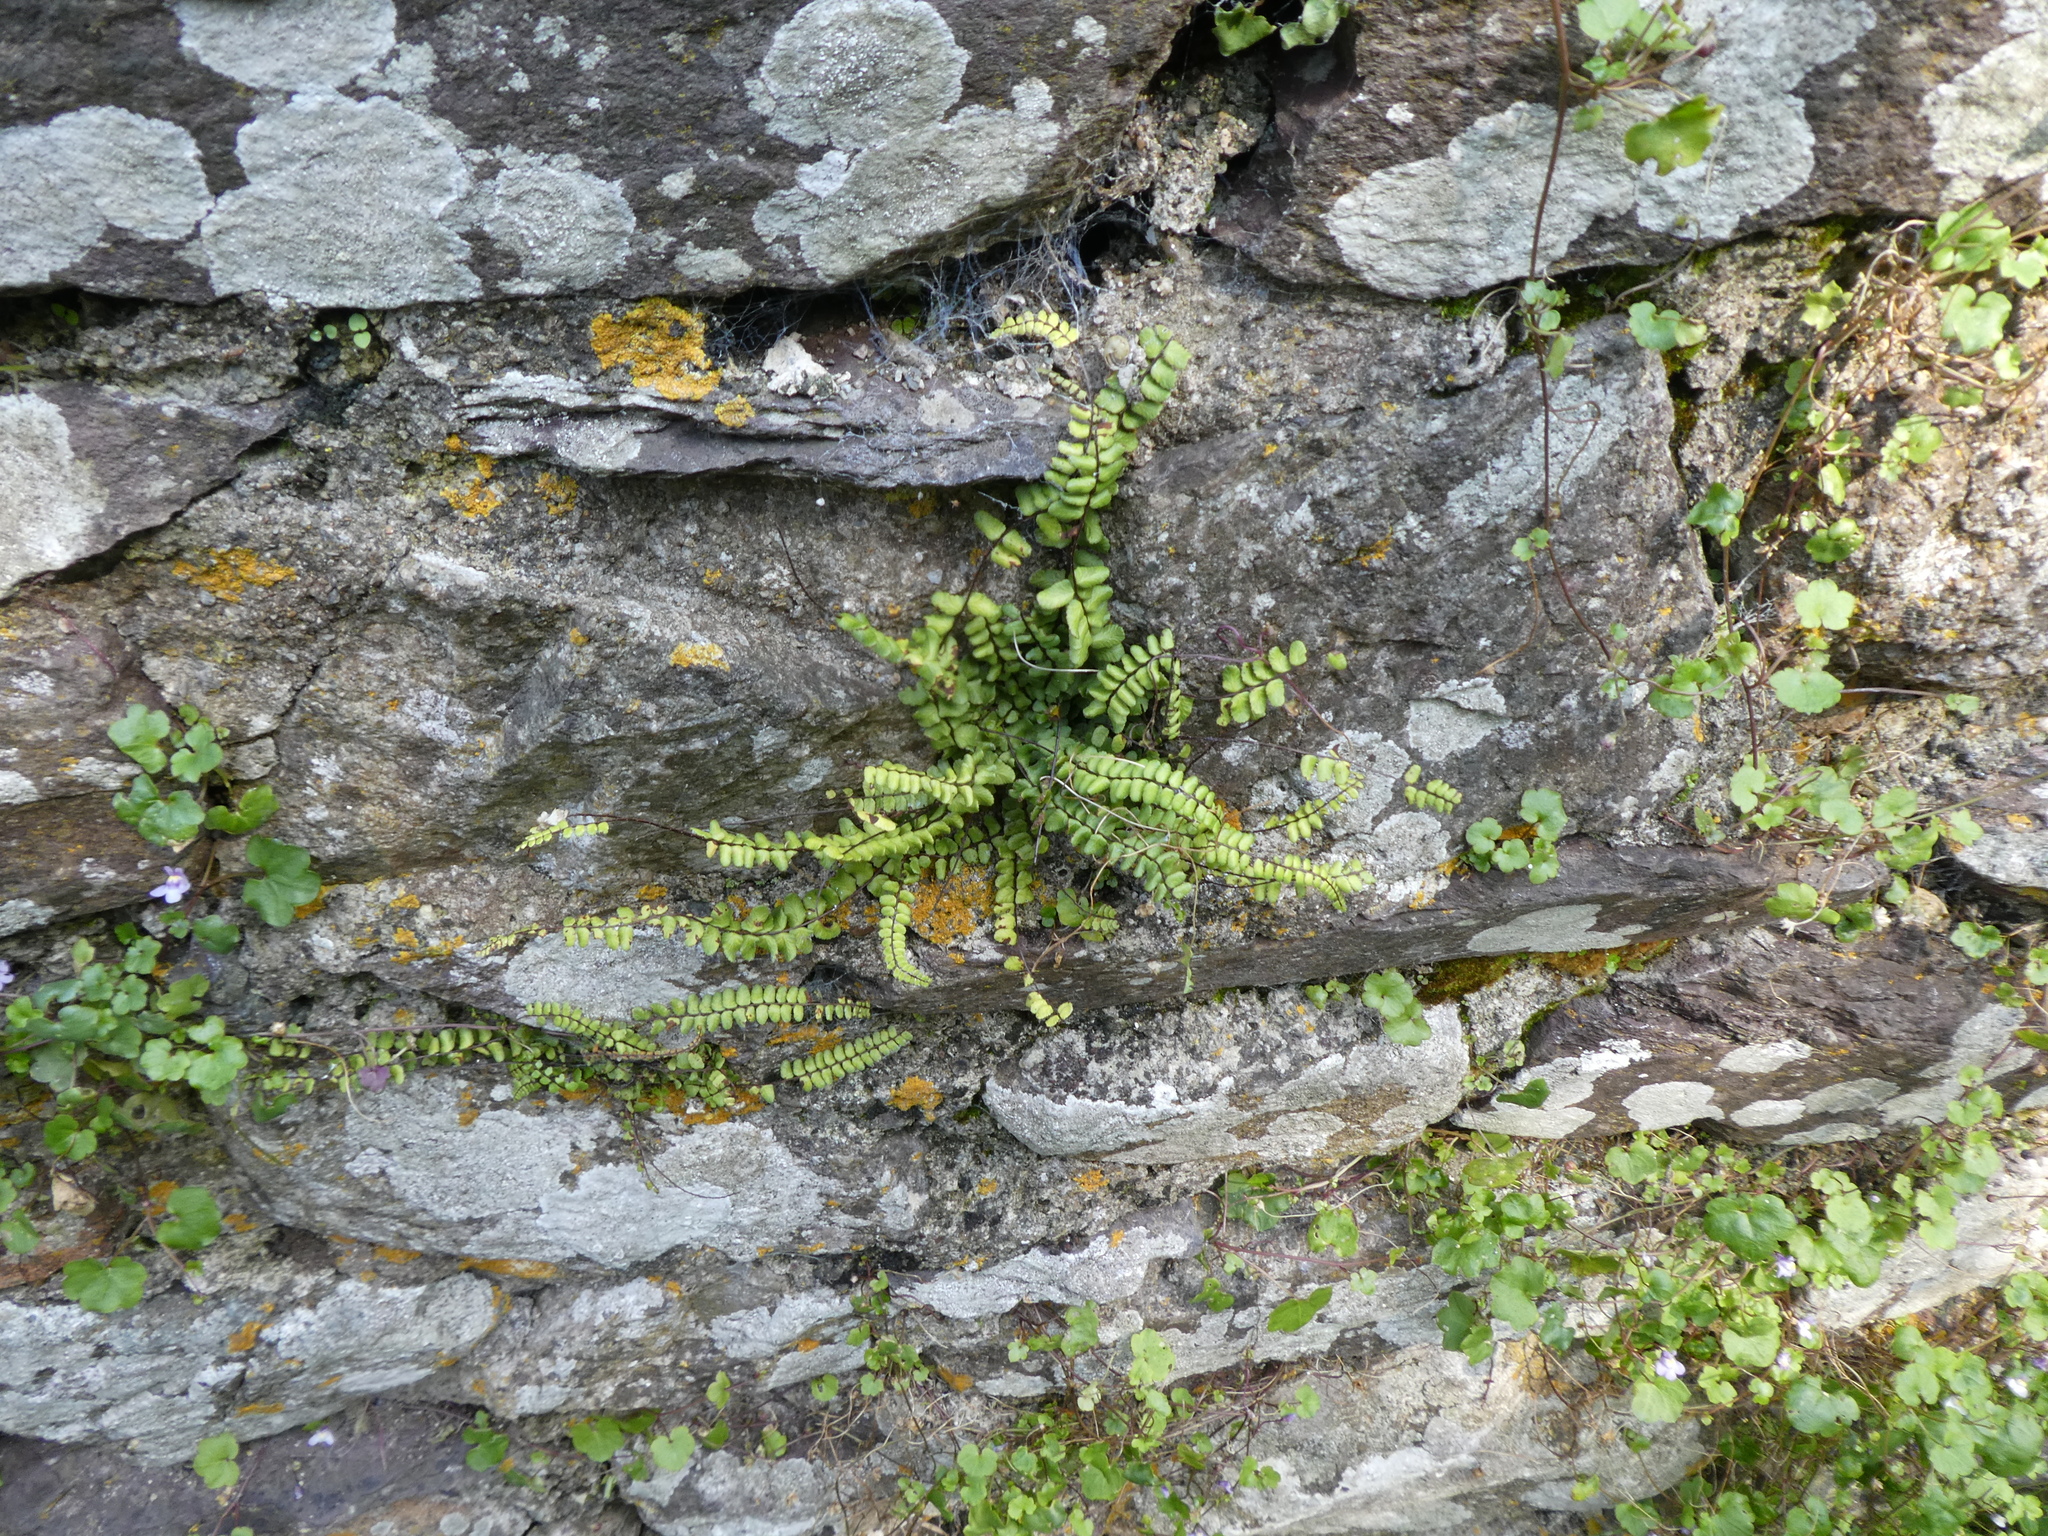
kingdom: Plantae
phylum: Tracheophyta
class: Polypodiopsida
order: Polypodiales
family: Aspleniaceae
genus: Asplenium
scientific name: Asplenium trichomanes
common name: Maidenhair spleenwort
